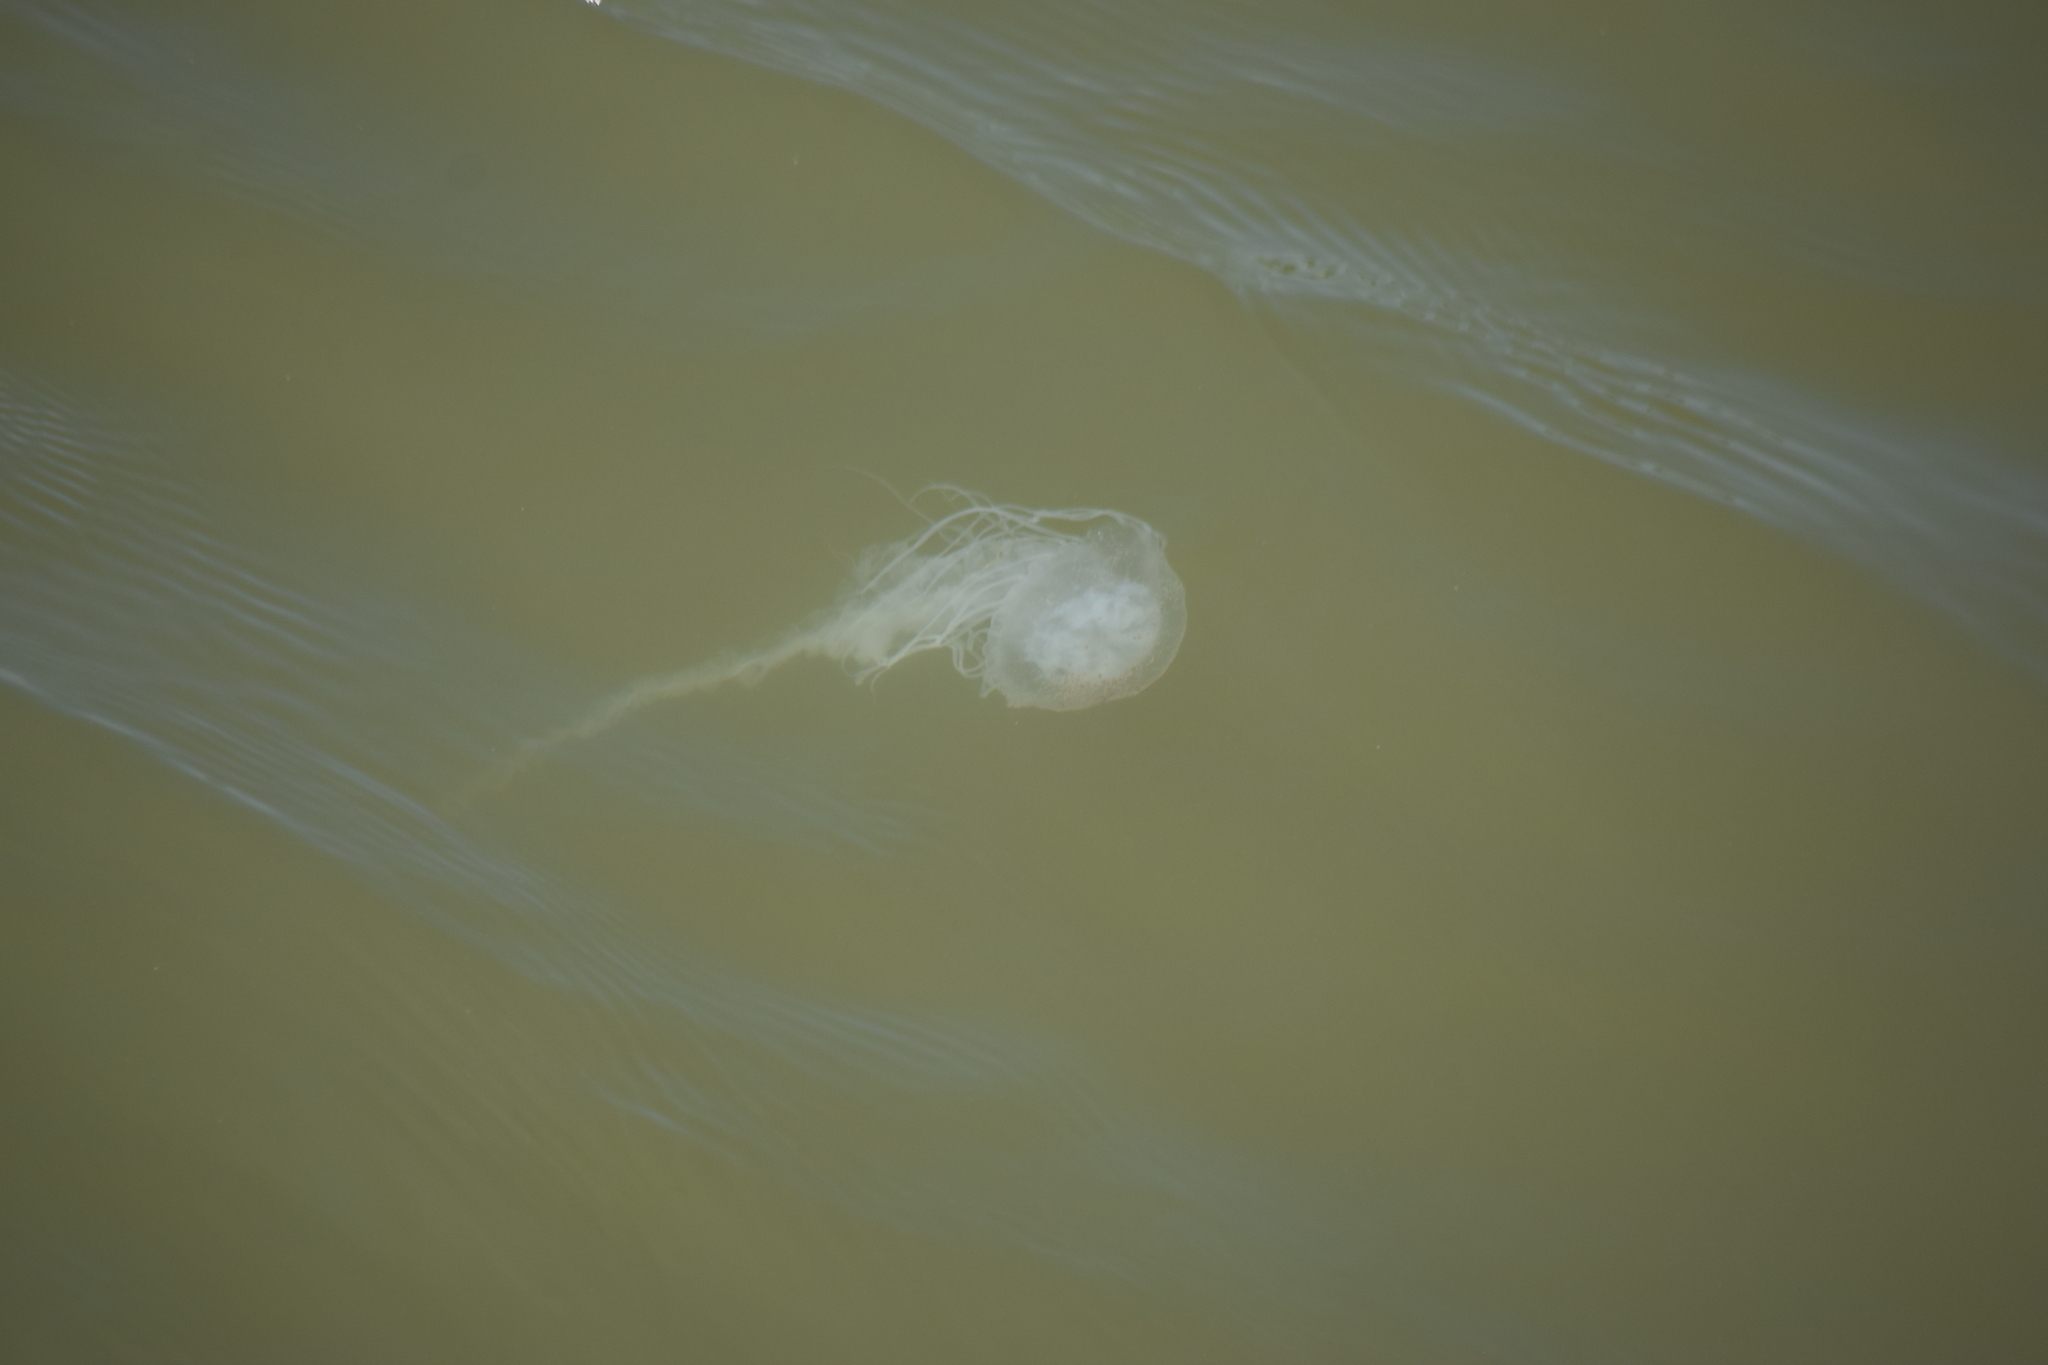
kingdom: Animalia
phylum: Cnidaria
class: Scyphozoa
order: Semaeostomeae
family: Pelagiidae
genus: Chrysaora
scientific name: Chrysaora chesapeakei
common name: Bay nettle
